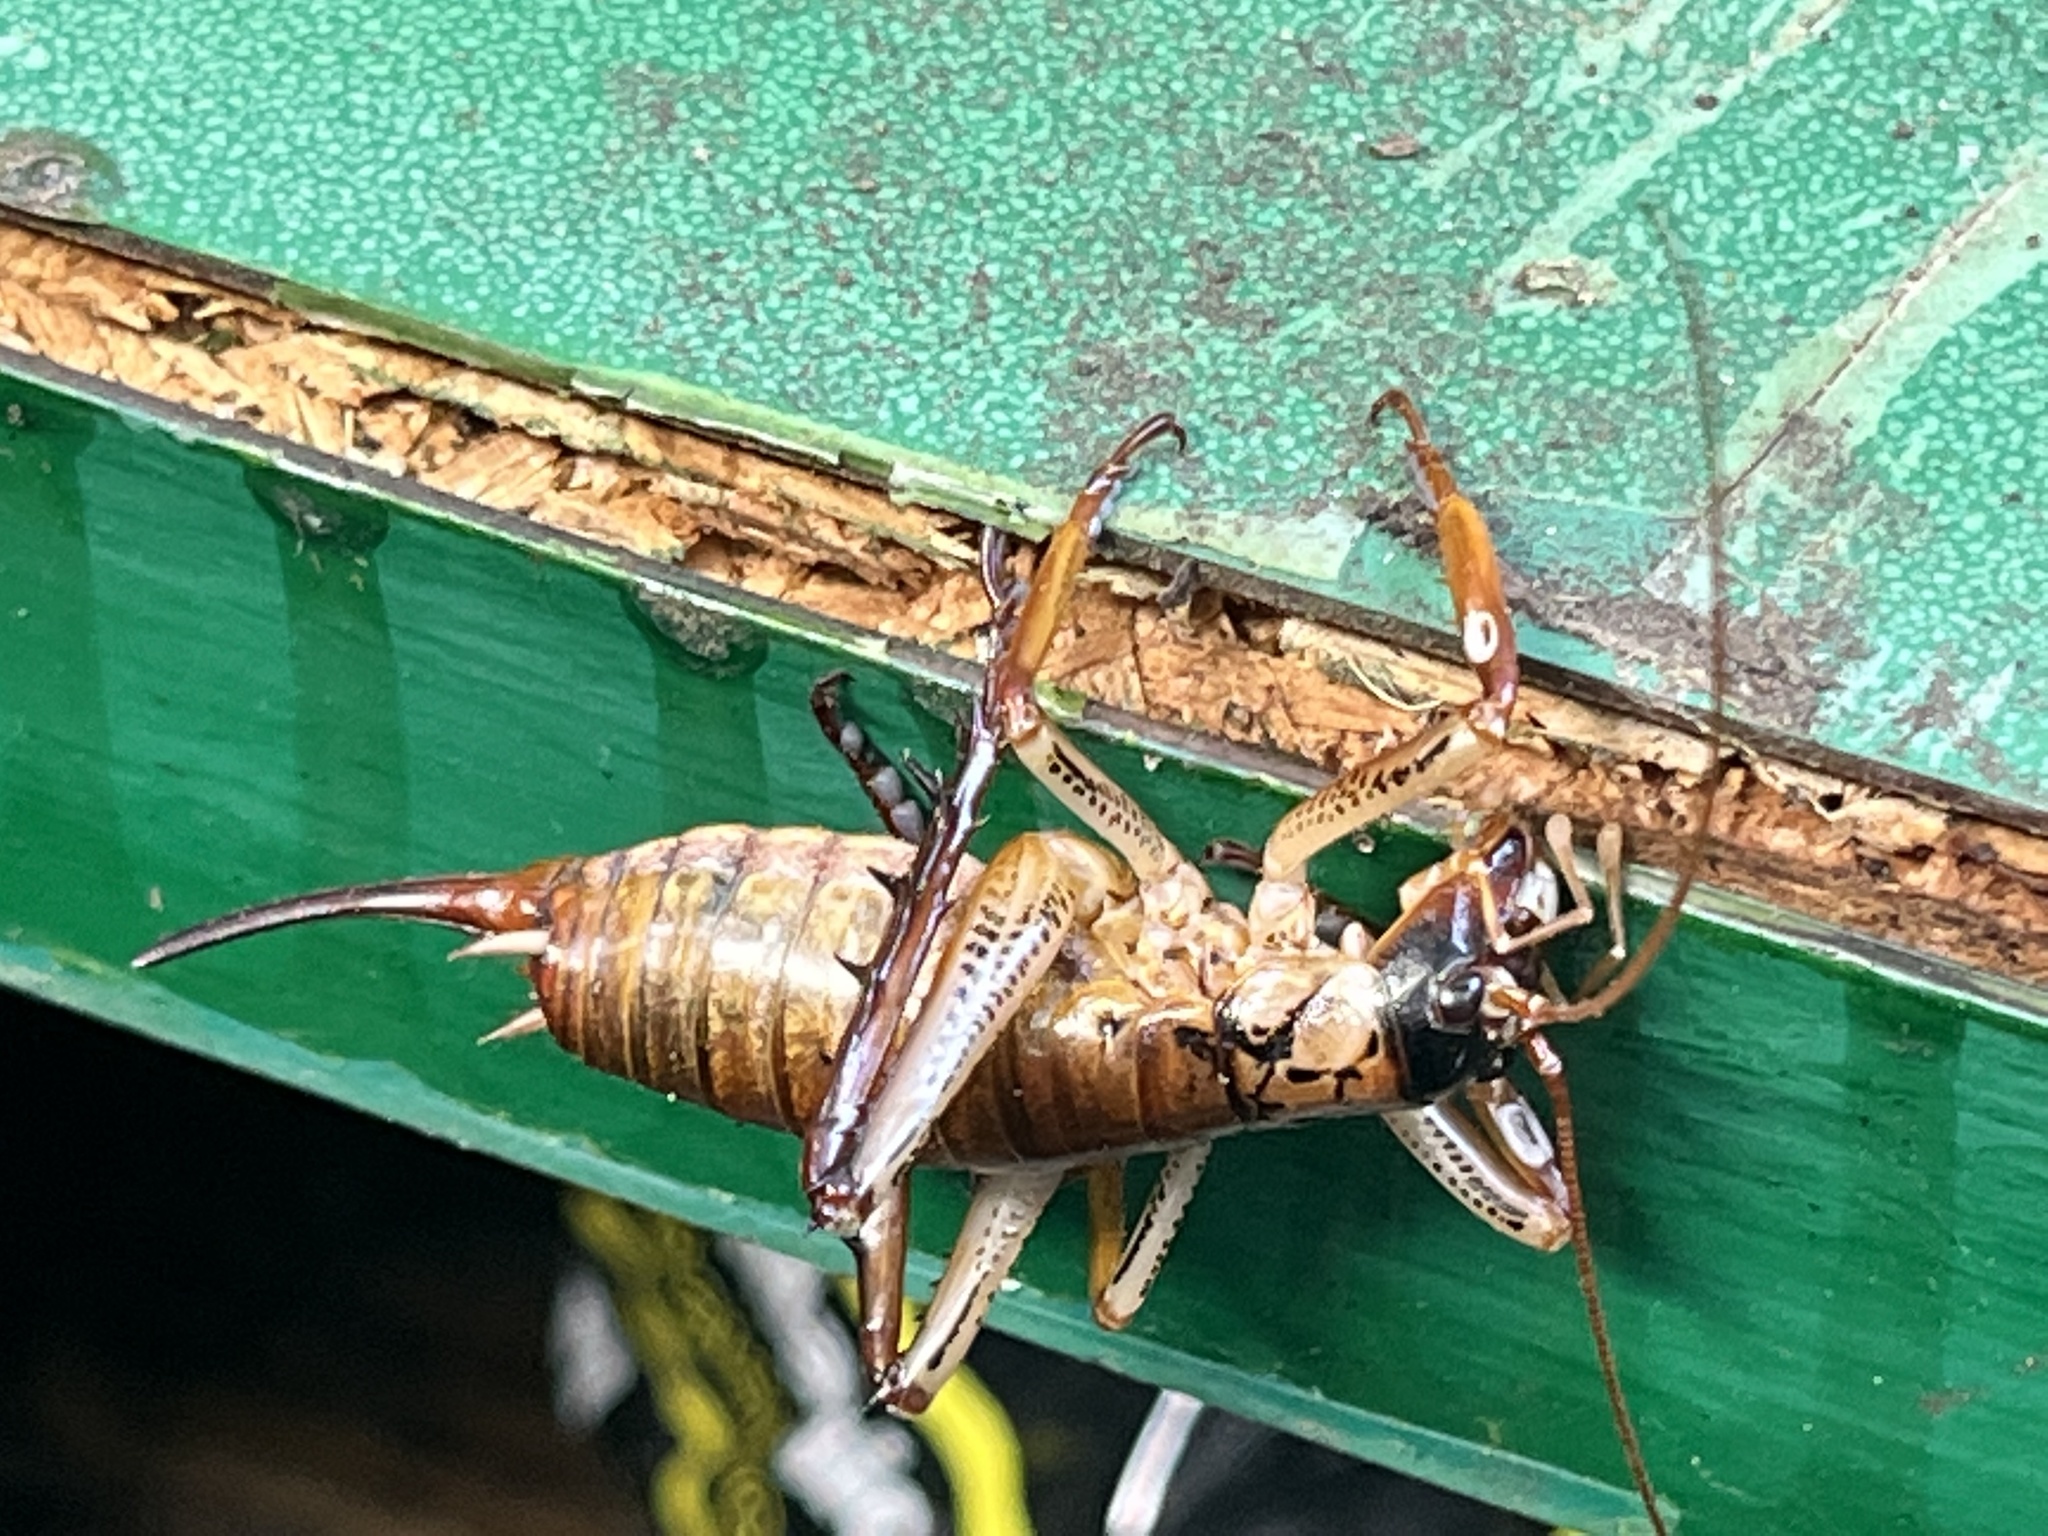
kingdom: Animalia
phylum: Arthropoda
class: Insecta
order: Orthoptera
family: Anostostomatidae
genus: Hemideina
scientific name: Hemideina thoracica
